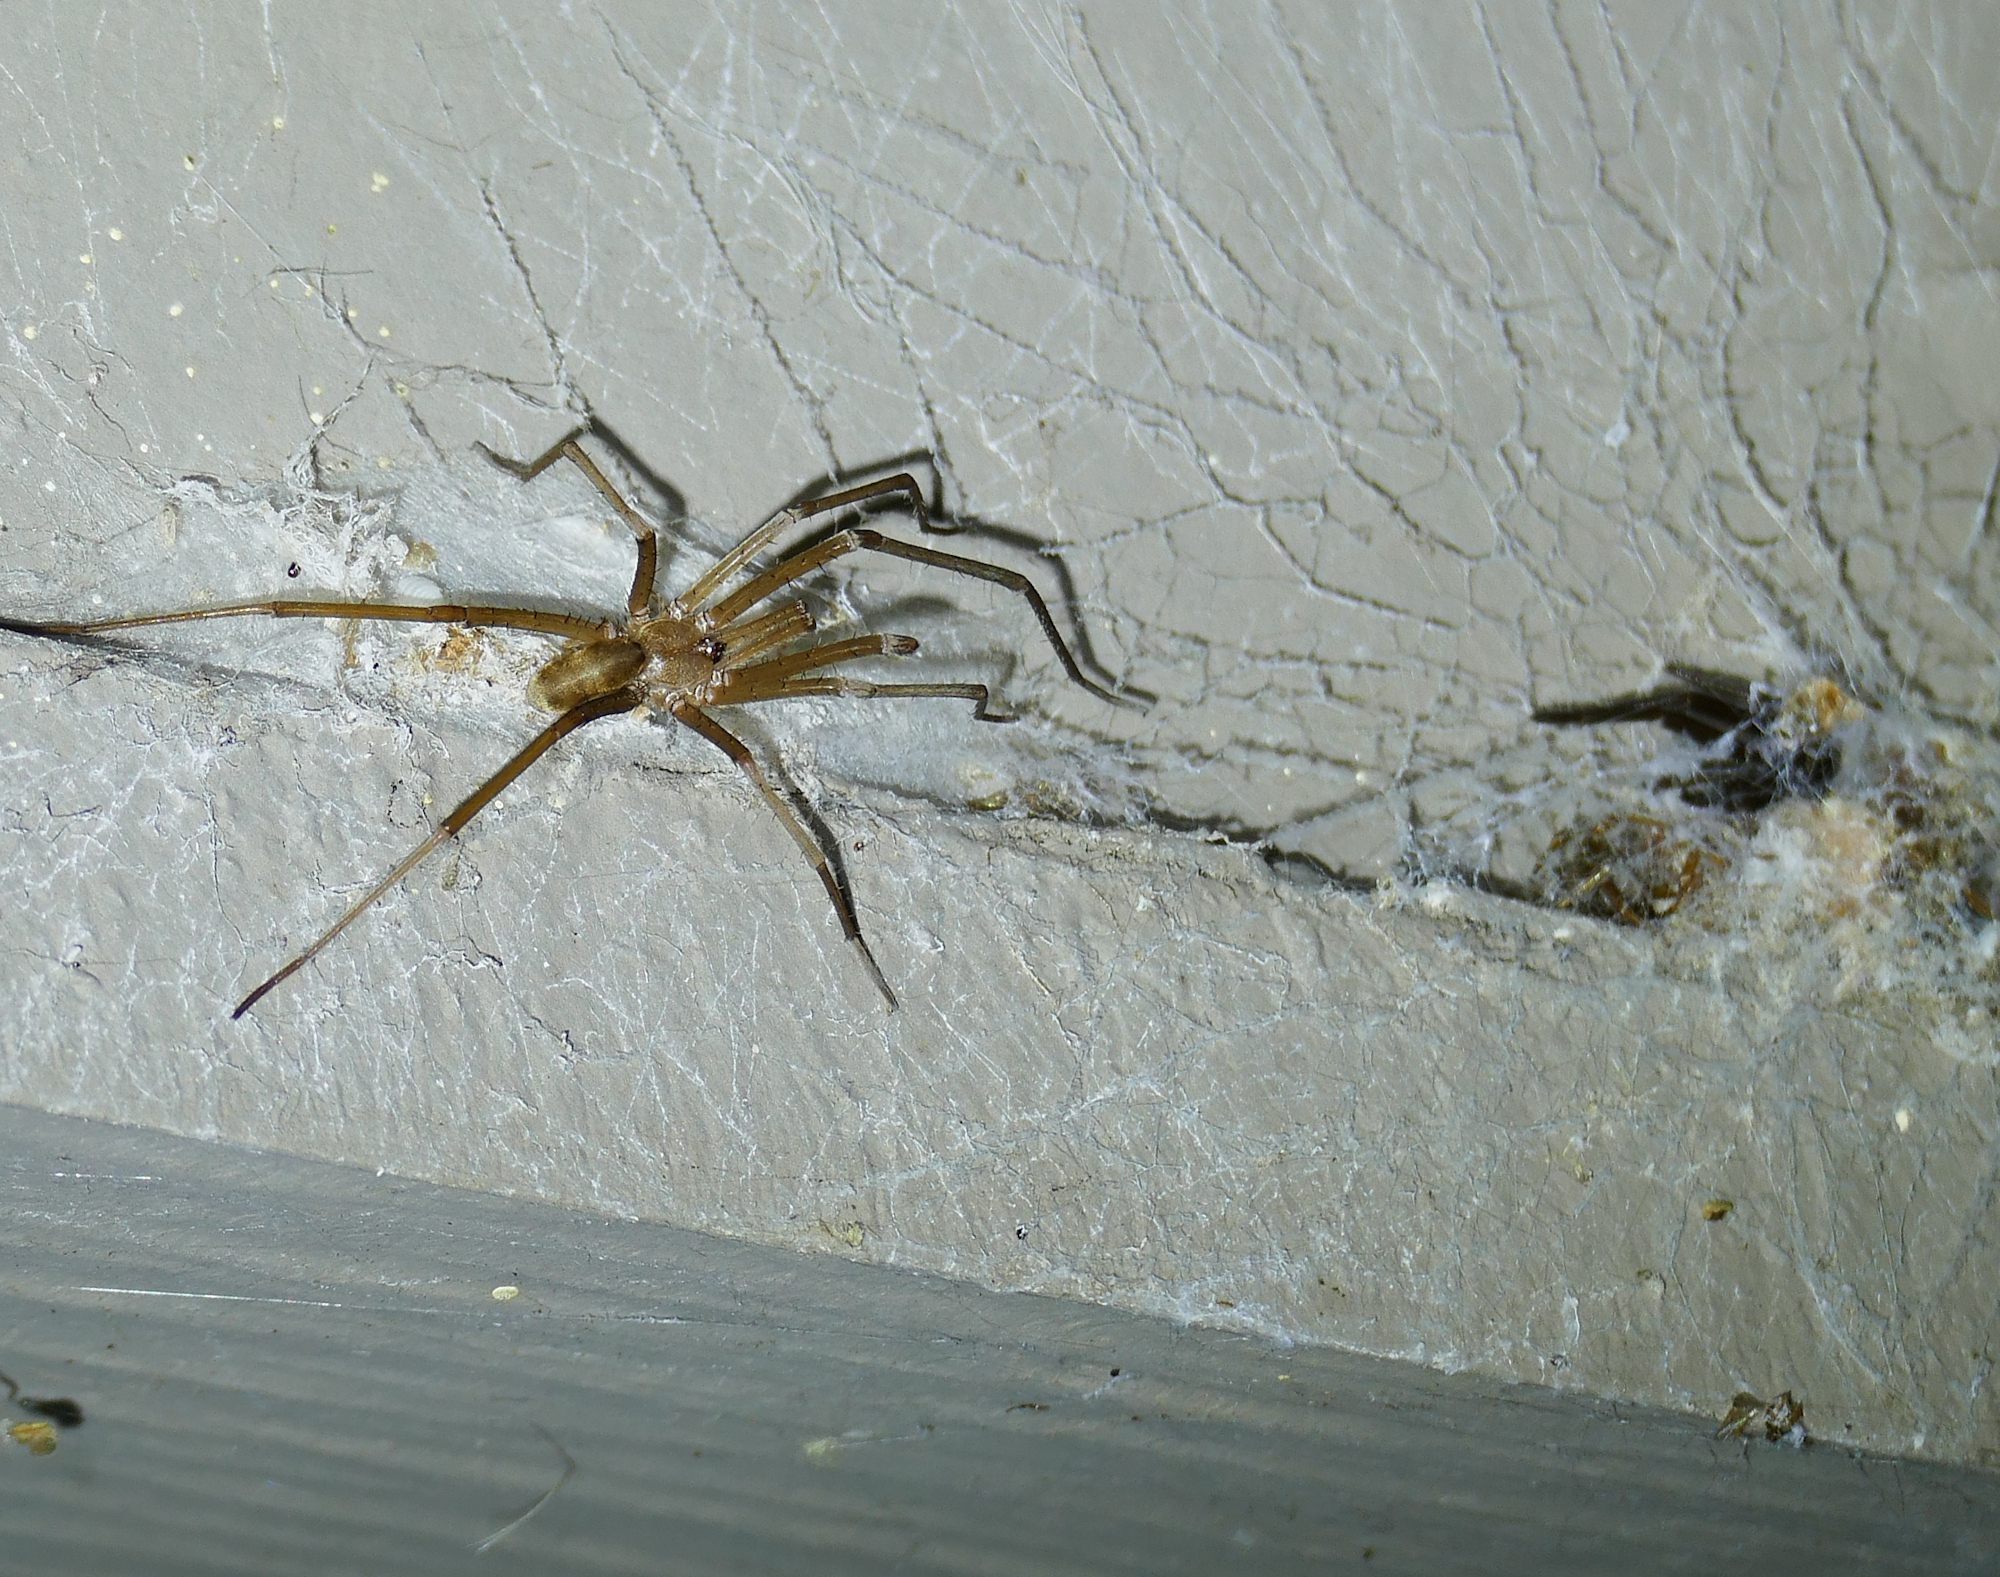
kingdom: Animalia
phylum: Arthropoda
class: Arachnida
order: Araneae
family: Filistatidae
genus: Kukulcania
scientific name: Kukulcania hibernalis
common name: Crevice weaver
